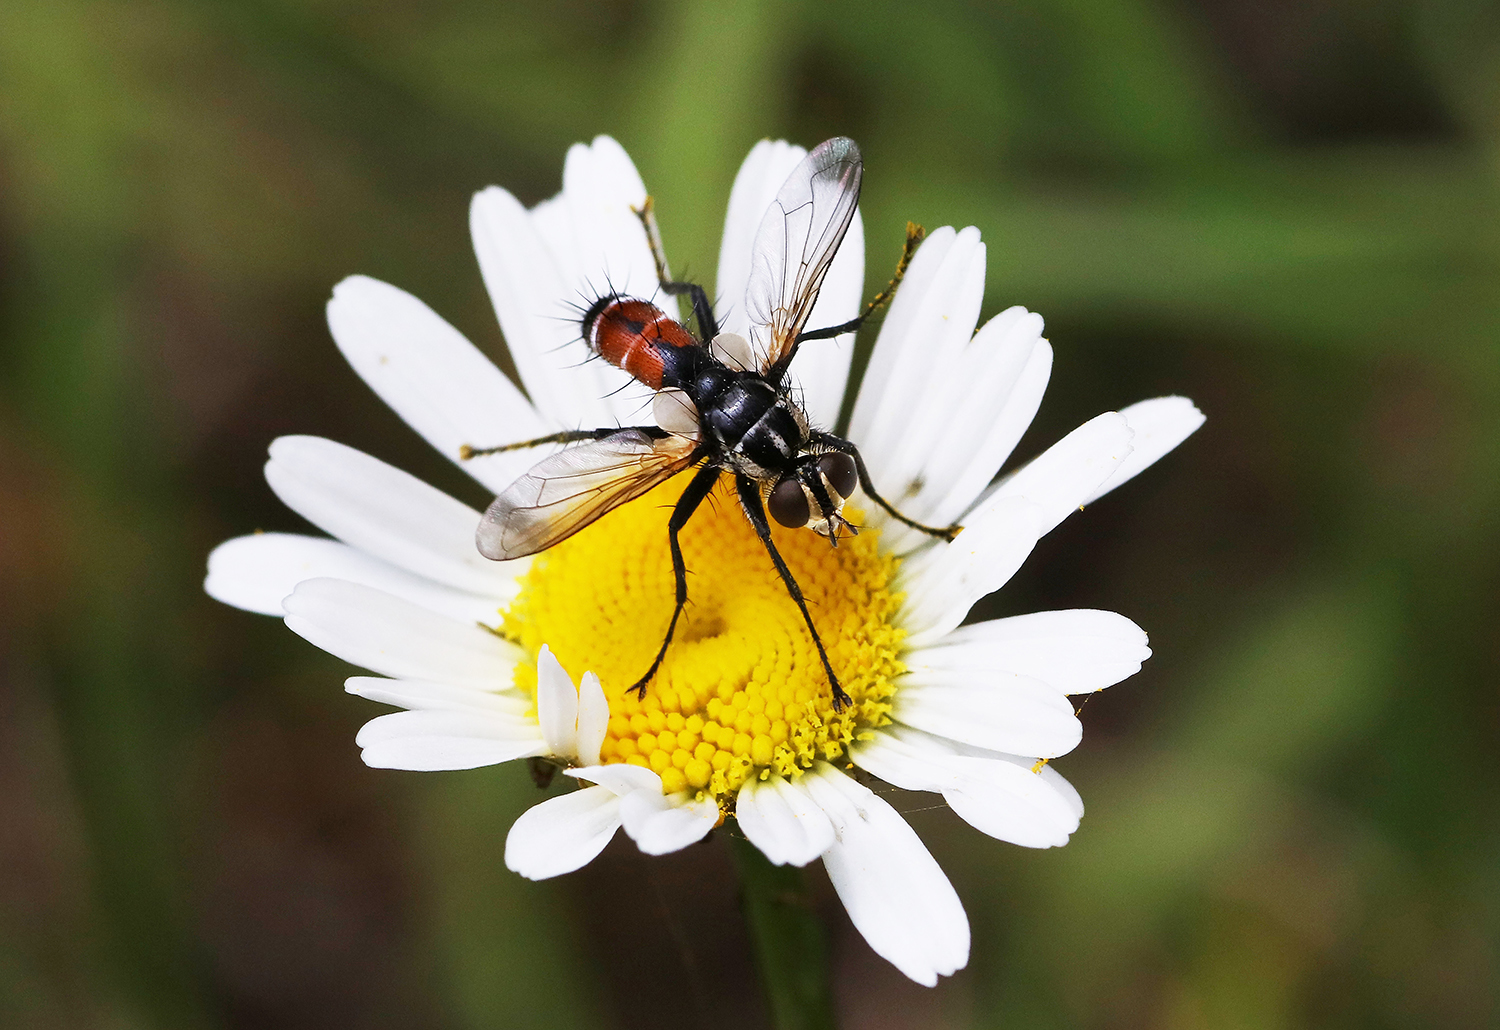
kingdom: Animalia
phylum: Arthropoda
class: Insecta
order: Diptera
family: Tachinidae
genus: Cylindromyia
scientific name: Cylindromyia tricolor
